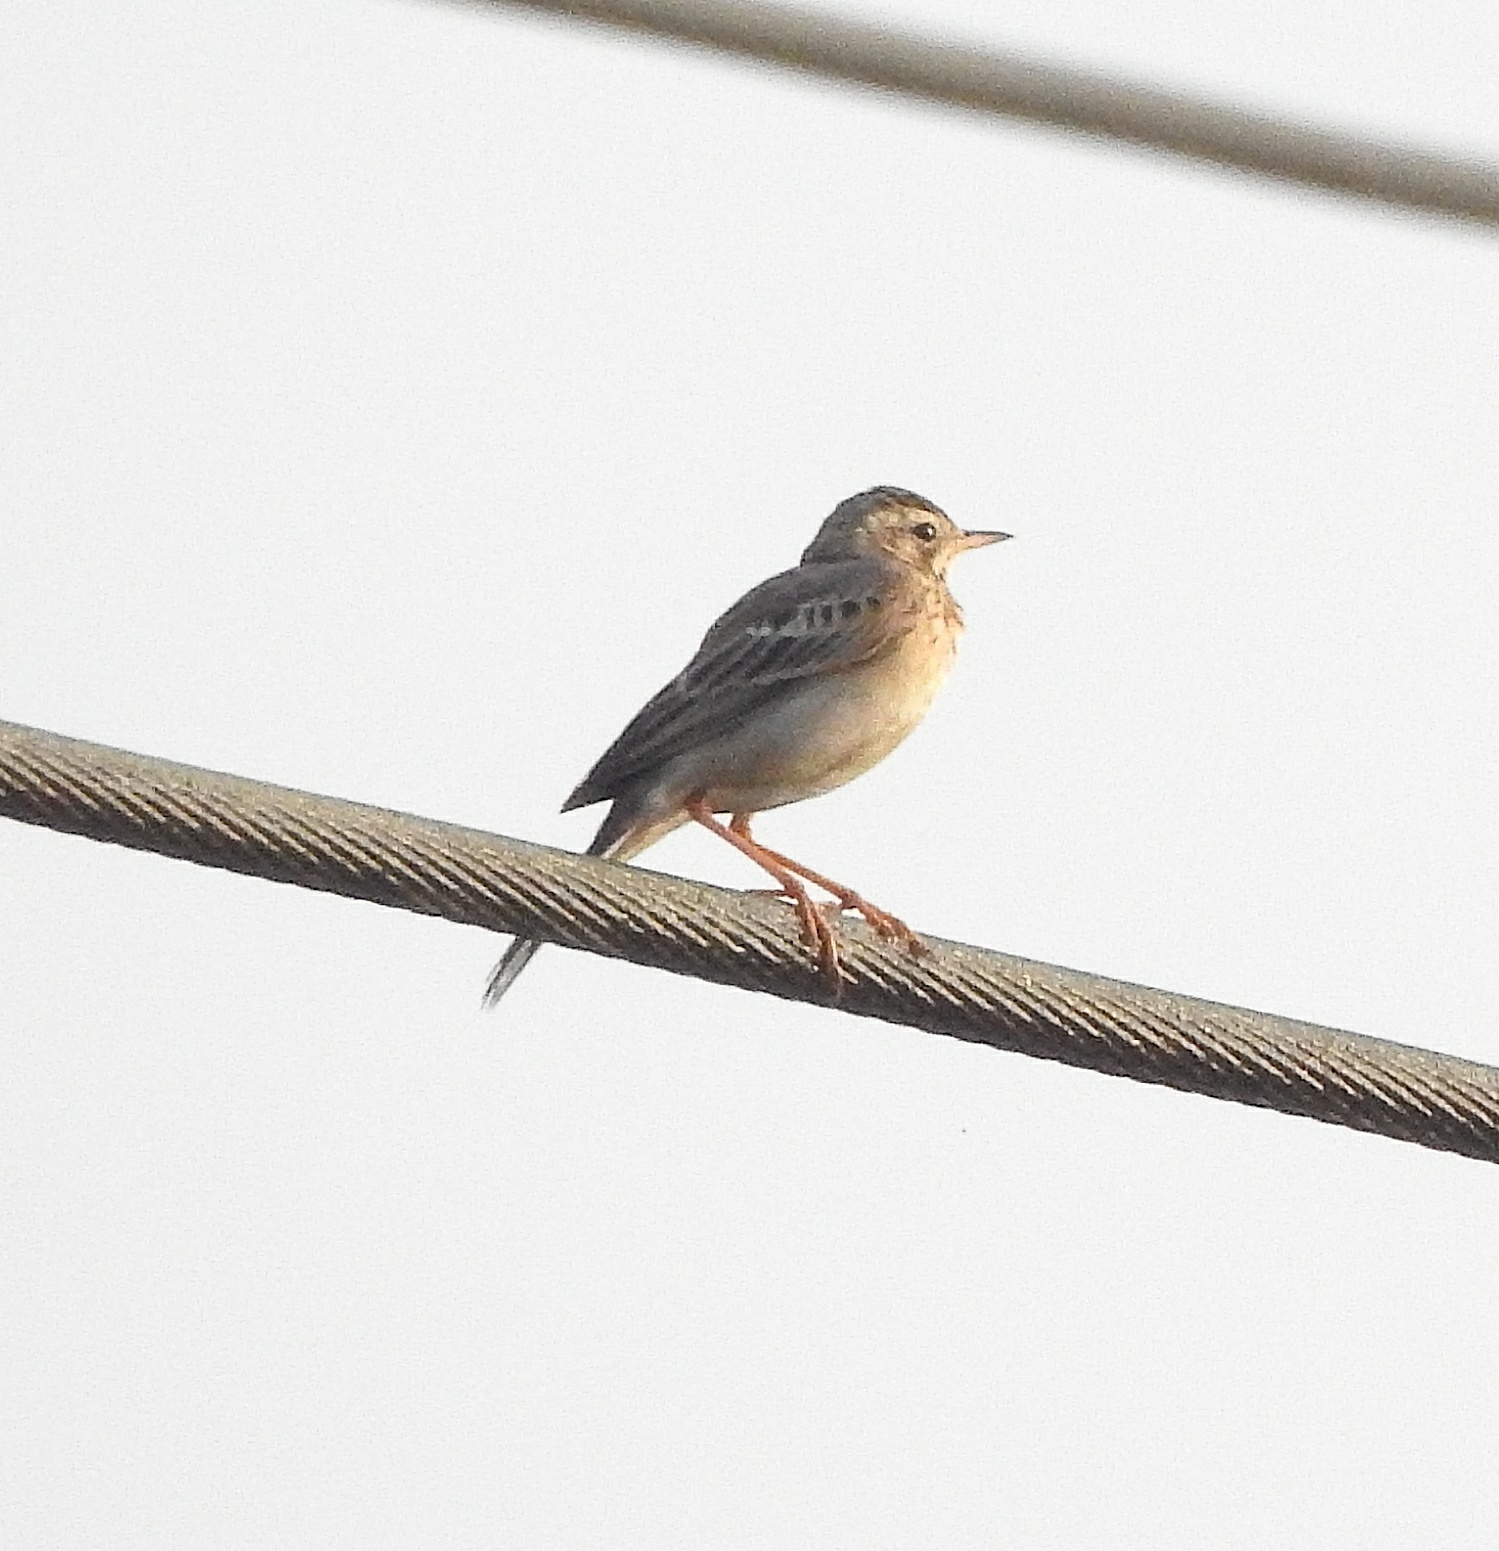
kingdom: Animalia
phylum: Chordata
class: Aves
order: Passeriformes
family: Motacillidae
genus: Anthus
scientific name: Anthus rufulus
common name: Paddyfield pipit
